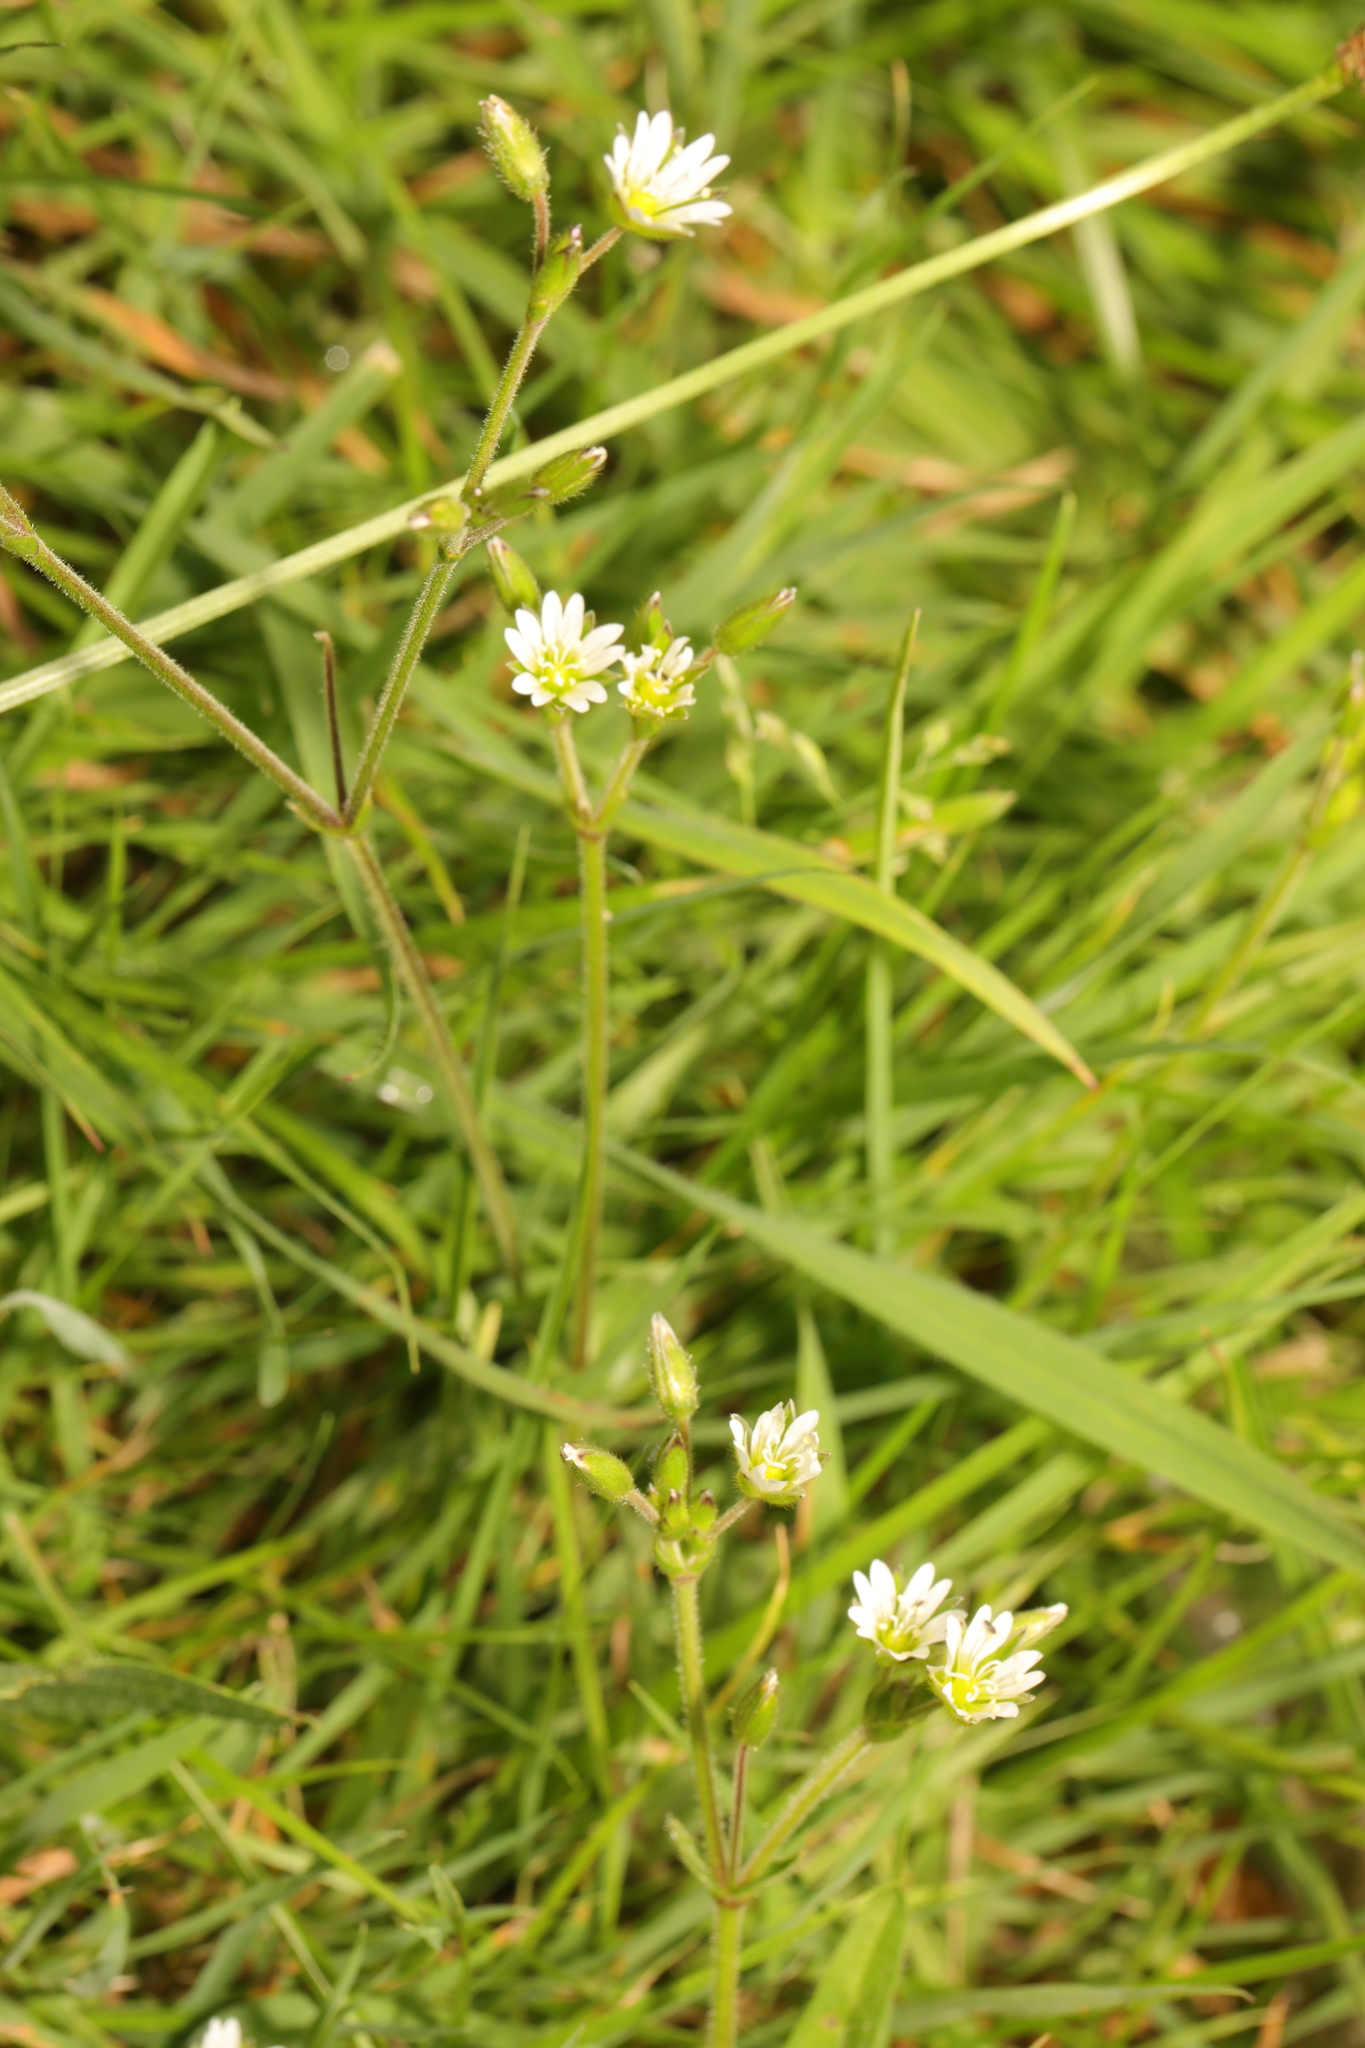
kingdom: Plantae
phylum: Tracheophyta
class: Magnoliopsida
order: Caryophyllales
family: Caryophyllaceae
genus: Cerastium
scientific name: Cerastium fontanum
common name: Common mouse-ear
